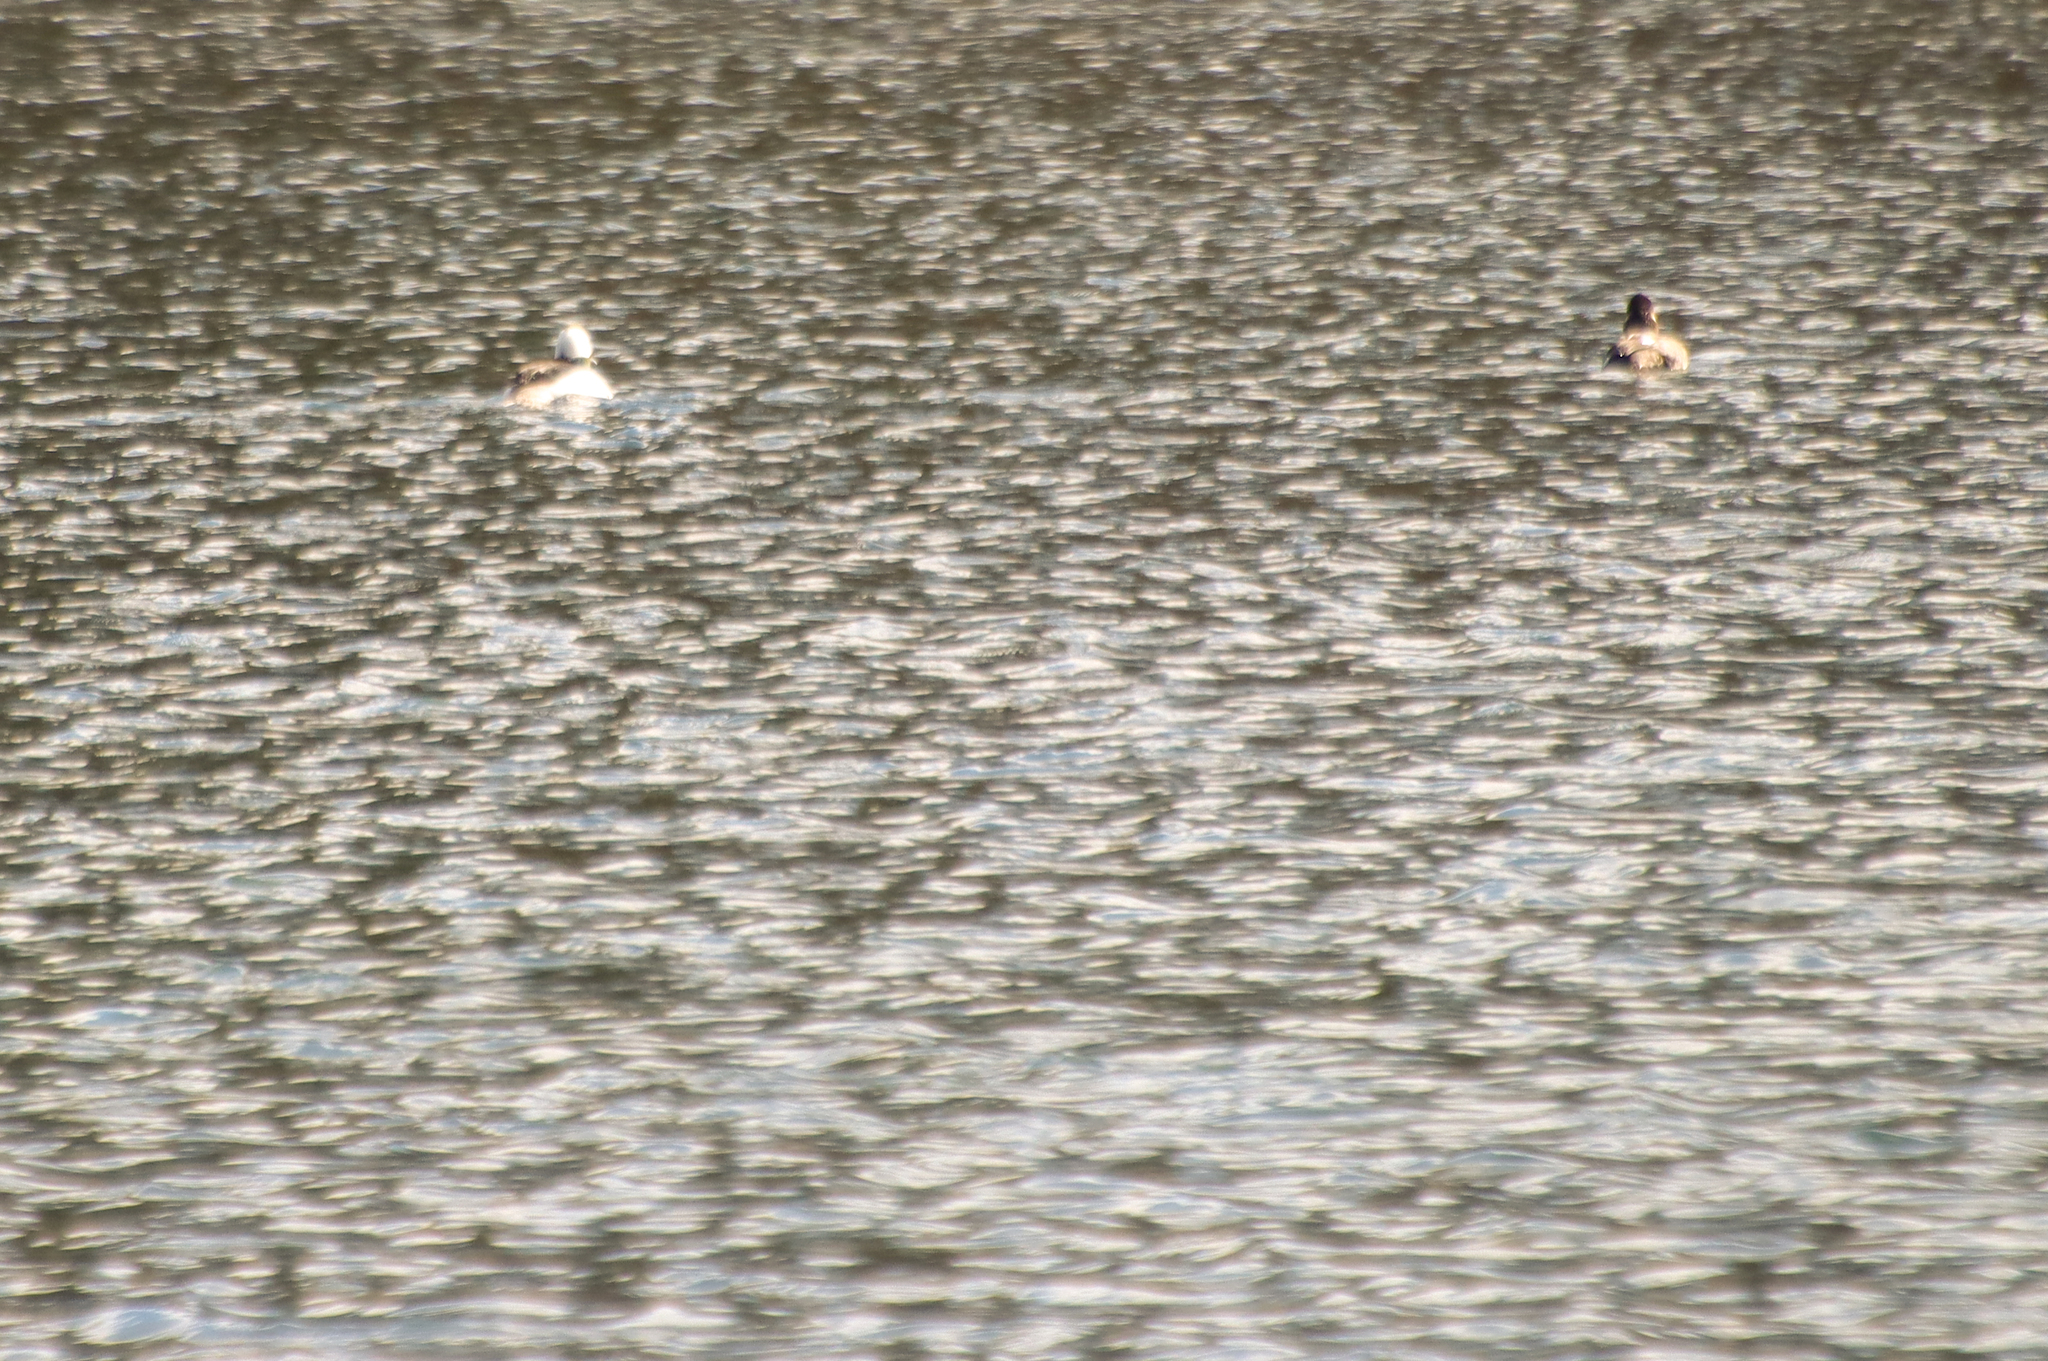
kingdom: Animalia
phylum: Chordata
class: Aves
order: Anseriformes
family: Anatidae
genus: Bucephala
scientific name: Bucephala albeola
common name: Bufflehead
